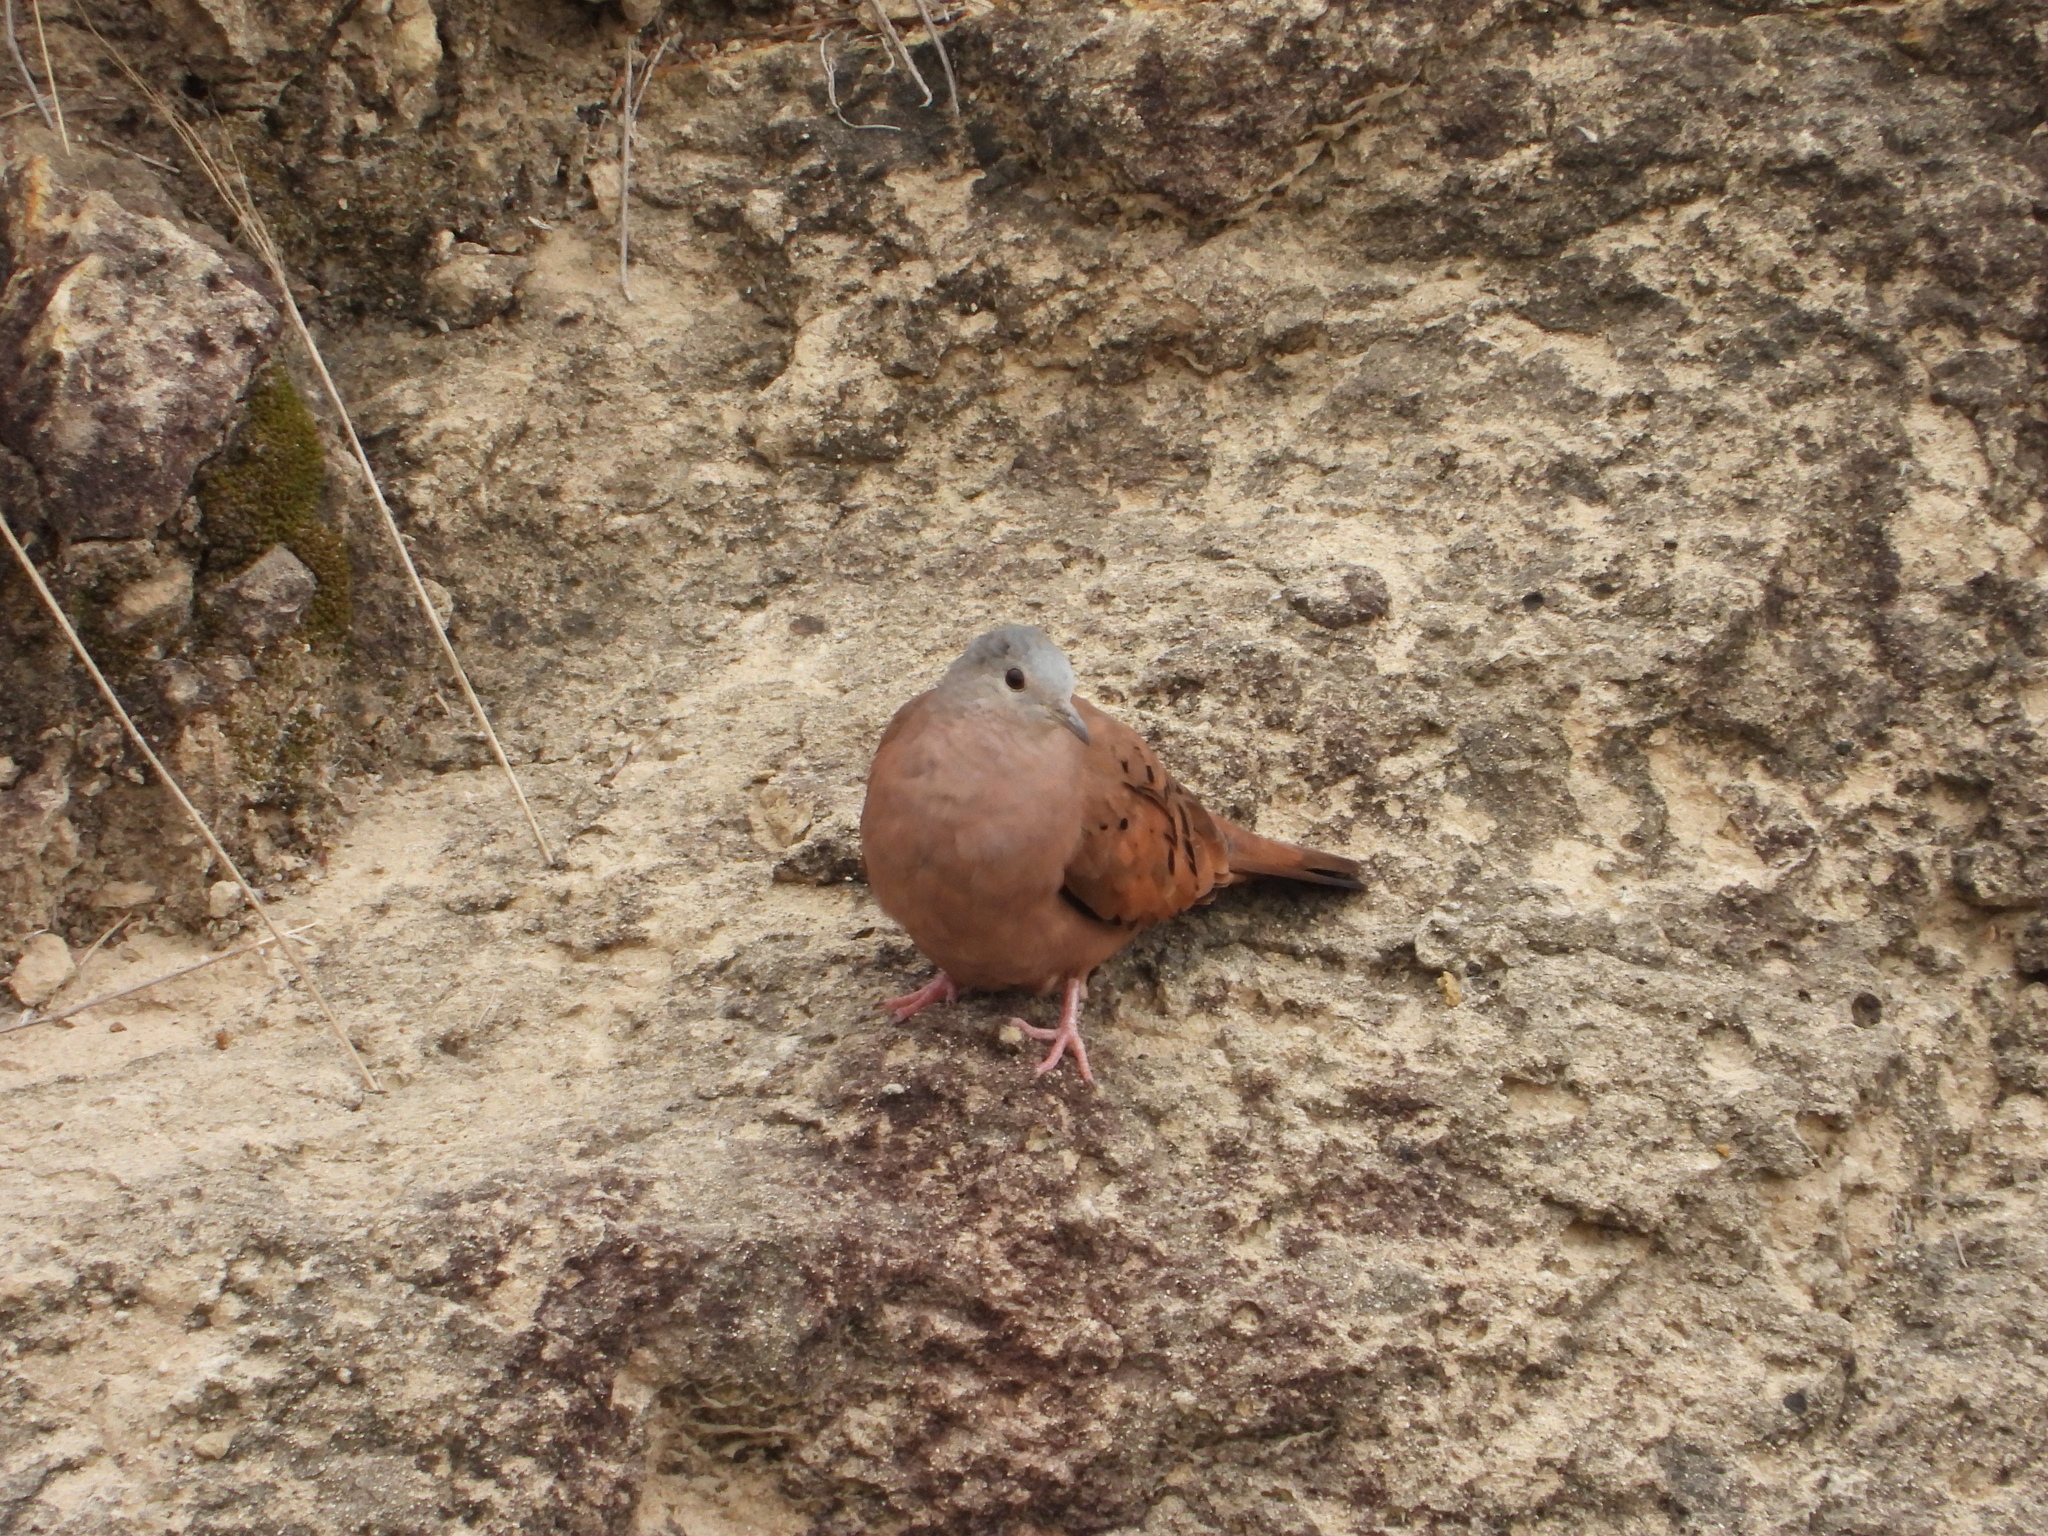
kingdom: Animalia
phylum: Chordata
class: Aves
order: Columbiformes
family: Columbidae
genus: Columbina
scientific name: Columbina talpacoti
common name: Ruddy ground dove
